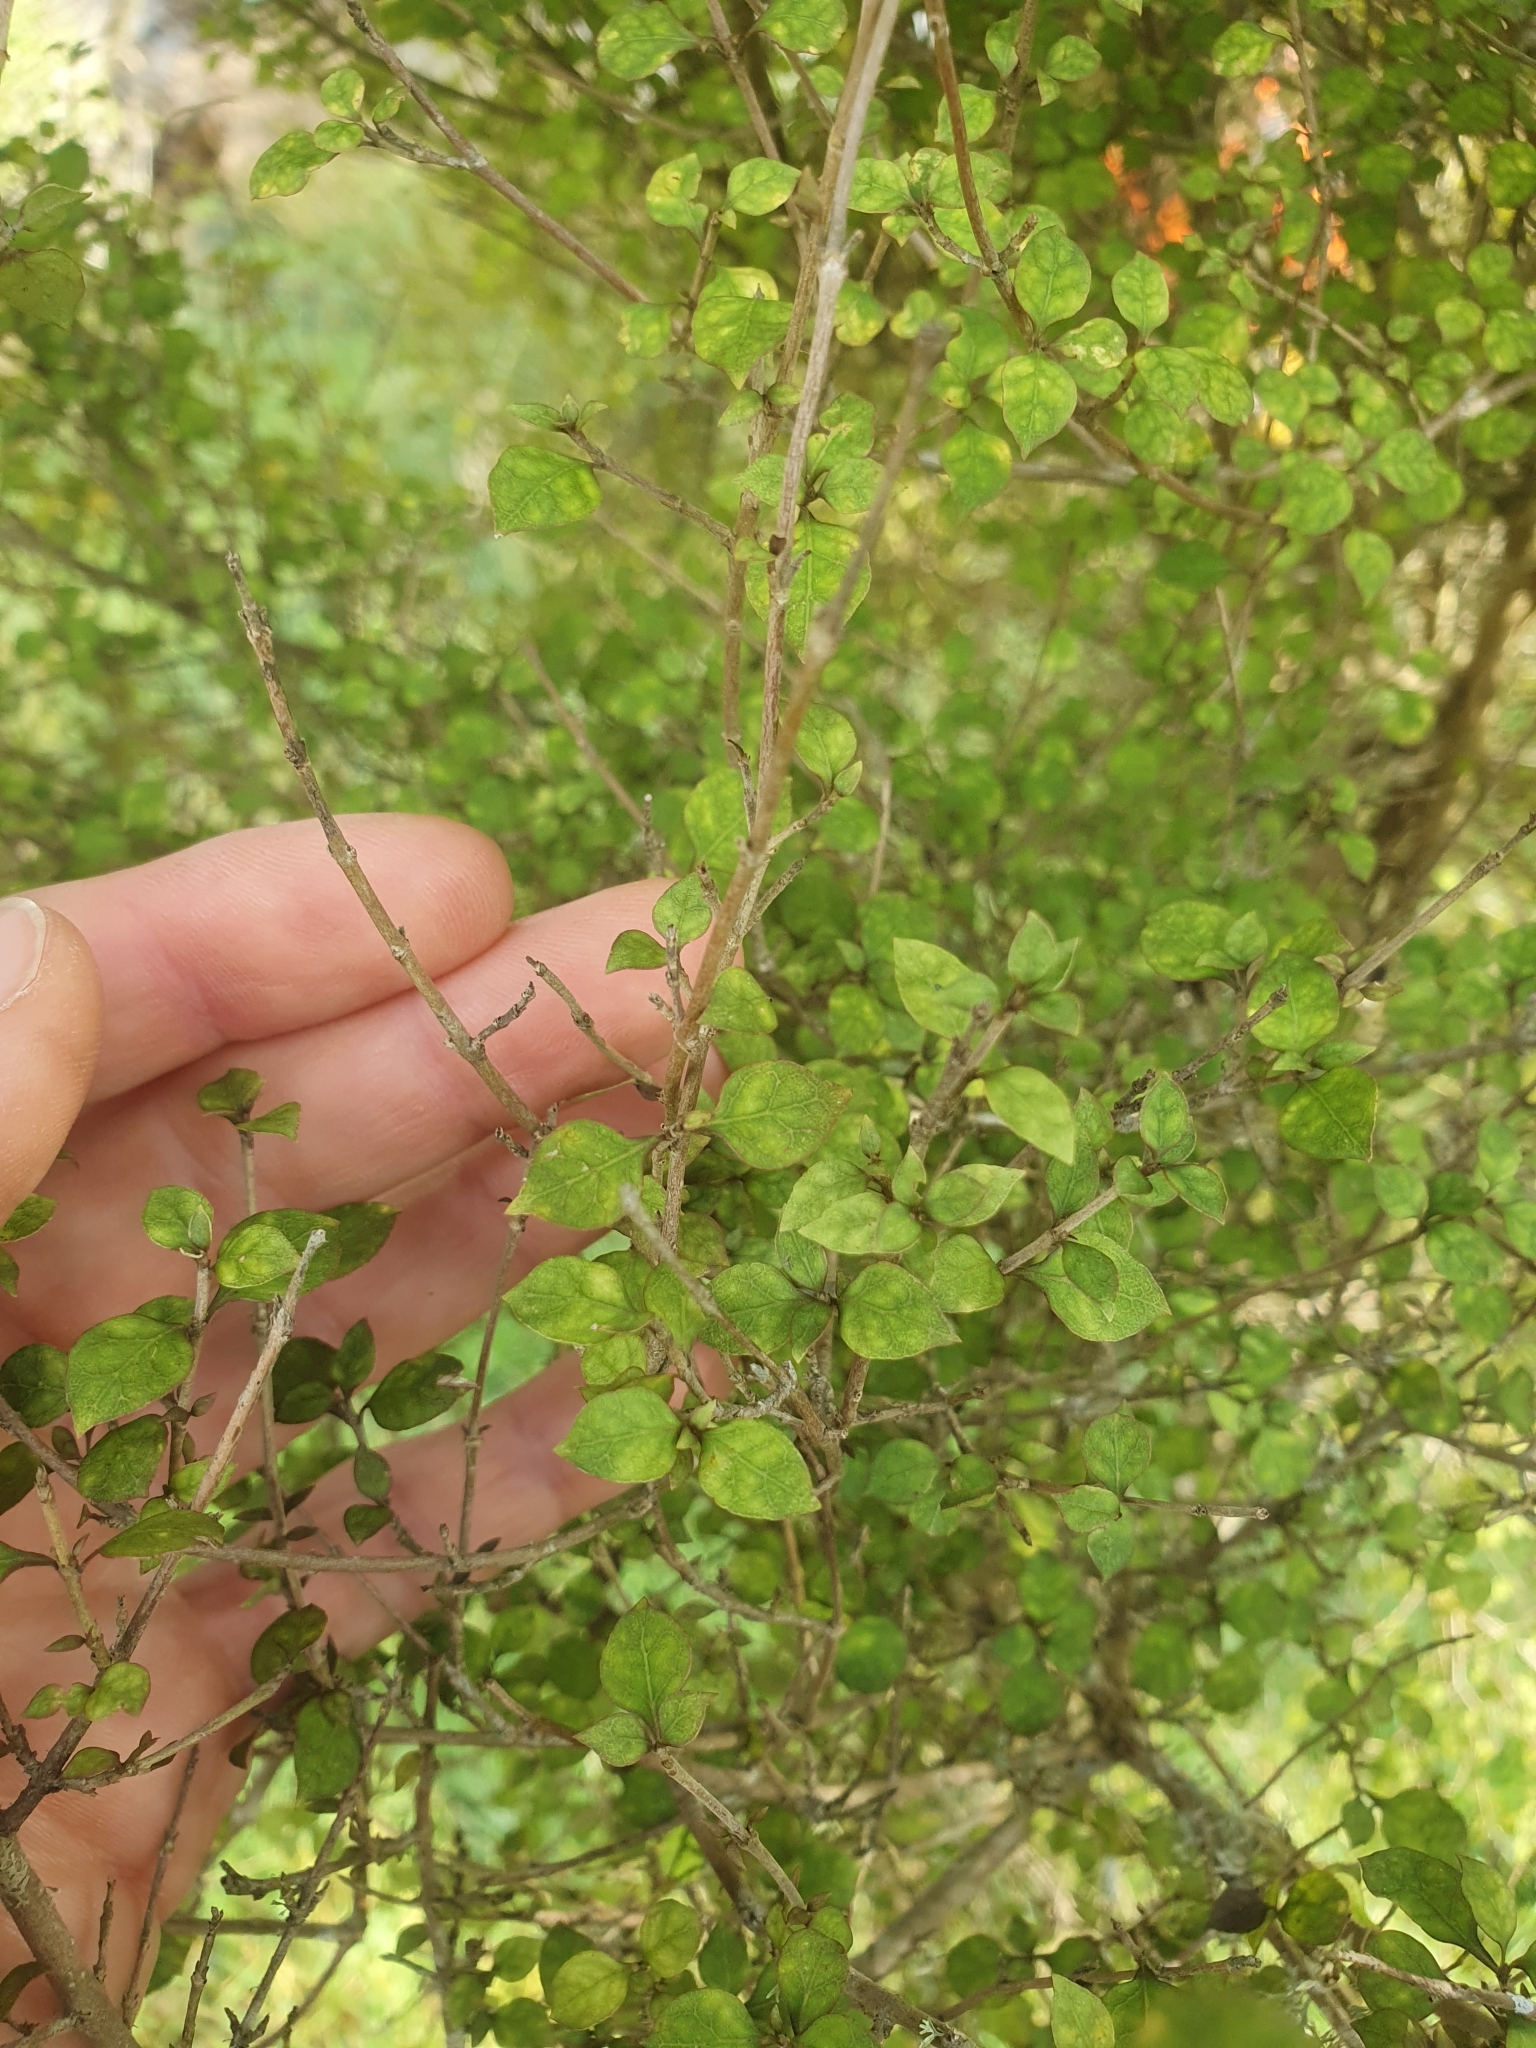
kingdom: Plantae
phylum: Tracheophyta
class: Magnoliopsida
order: Gentianales
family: Rubiaceae
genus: Coprosma
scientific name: Coprosma areolata
